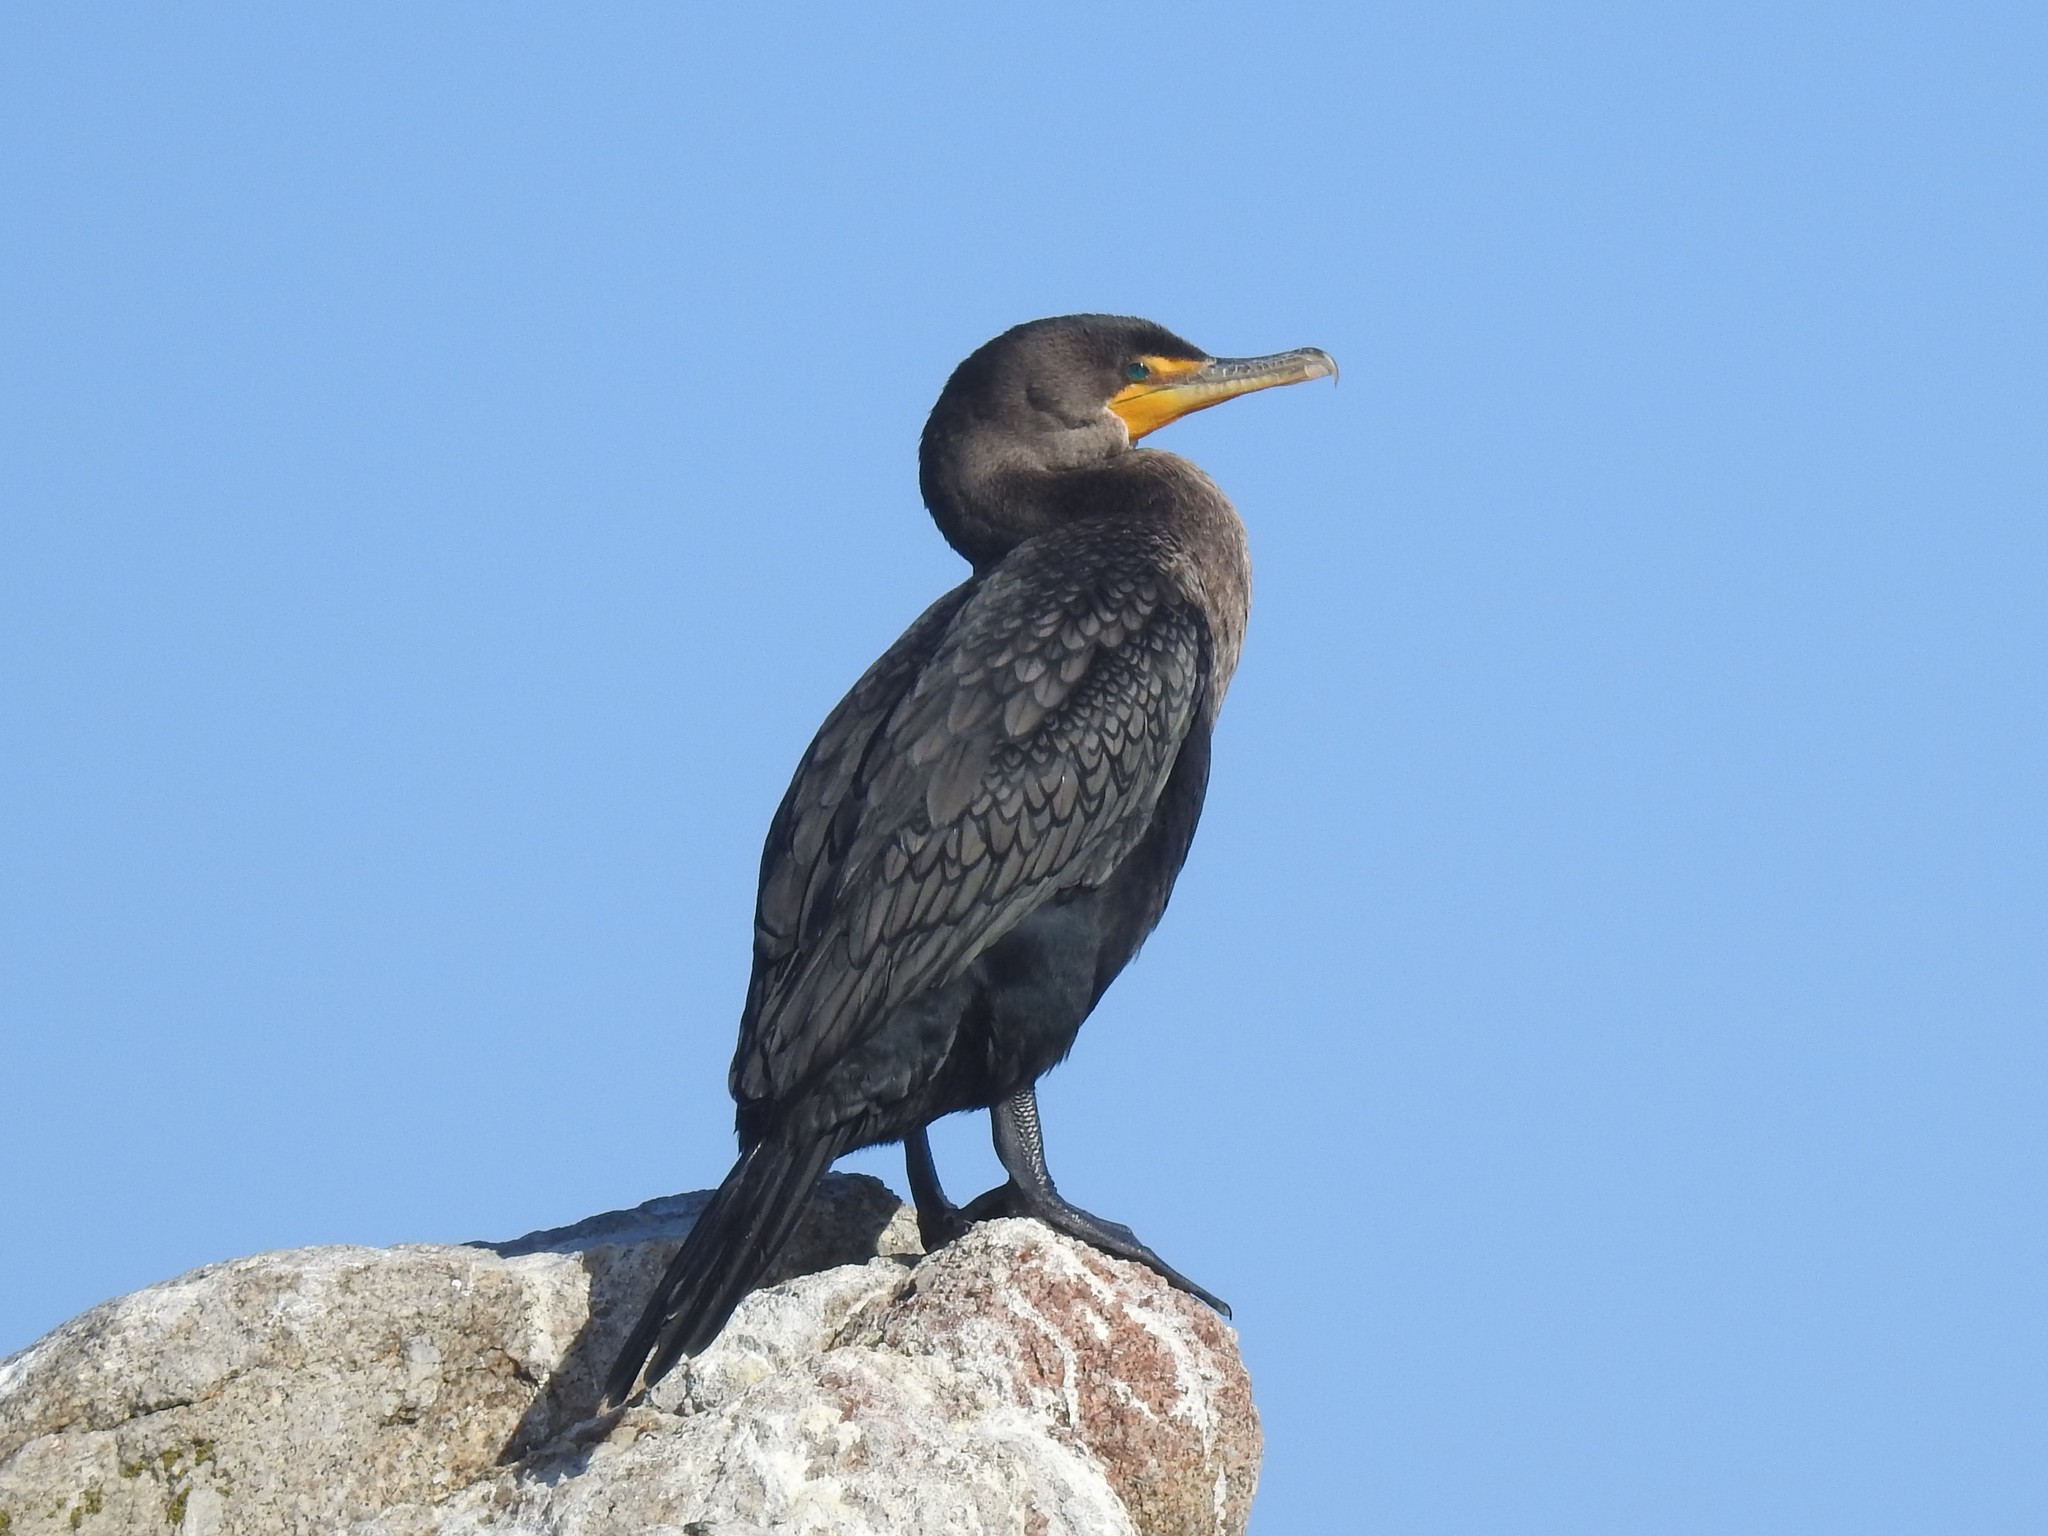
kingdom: Animalia
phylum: Chordata
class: Aves
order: Suliformes
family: Phalacrocoracidae
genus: Phalacrocorax
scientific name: Phalacrocorax auritus
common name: Double-crested cormorant
